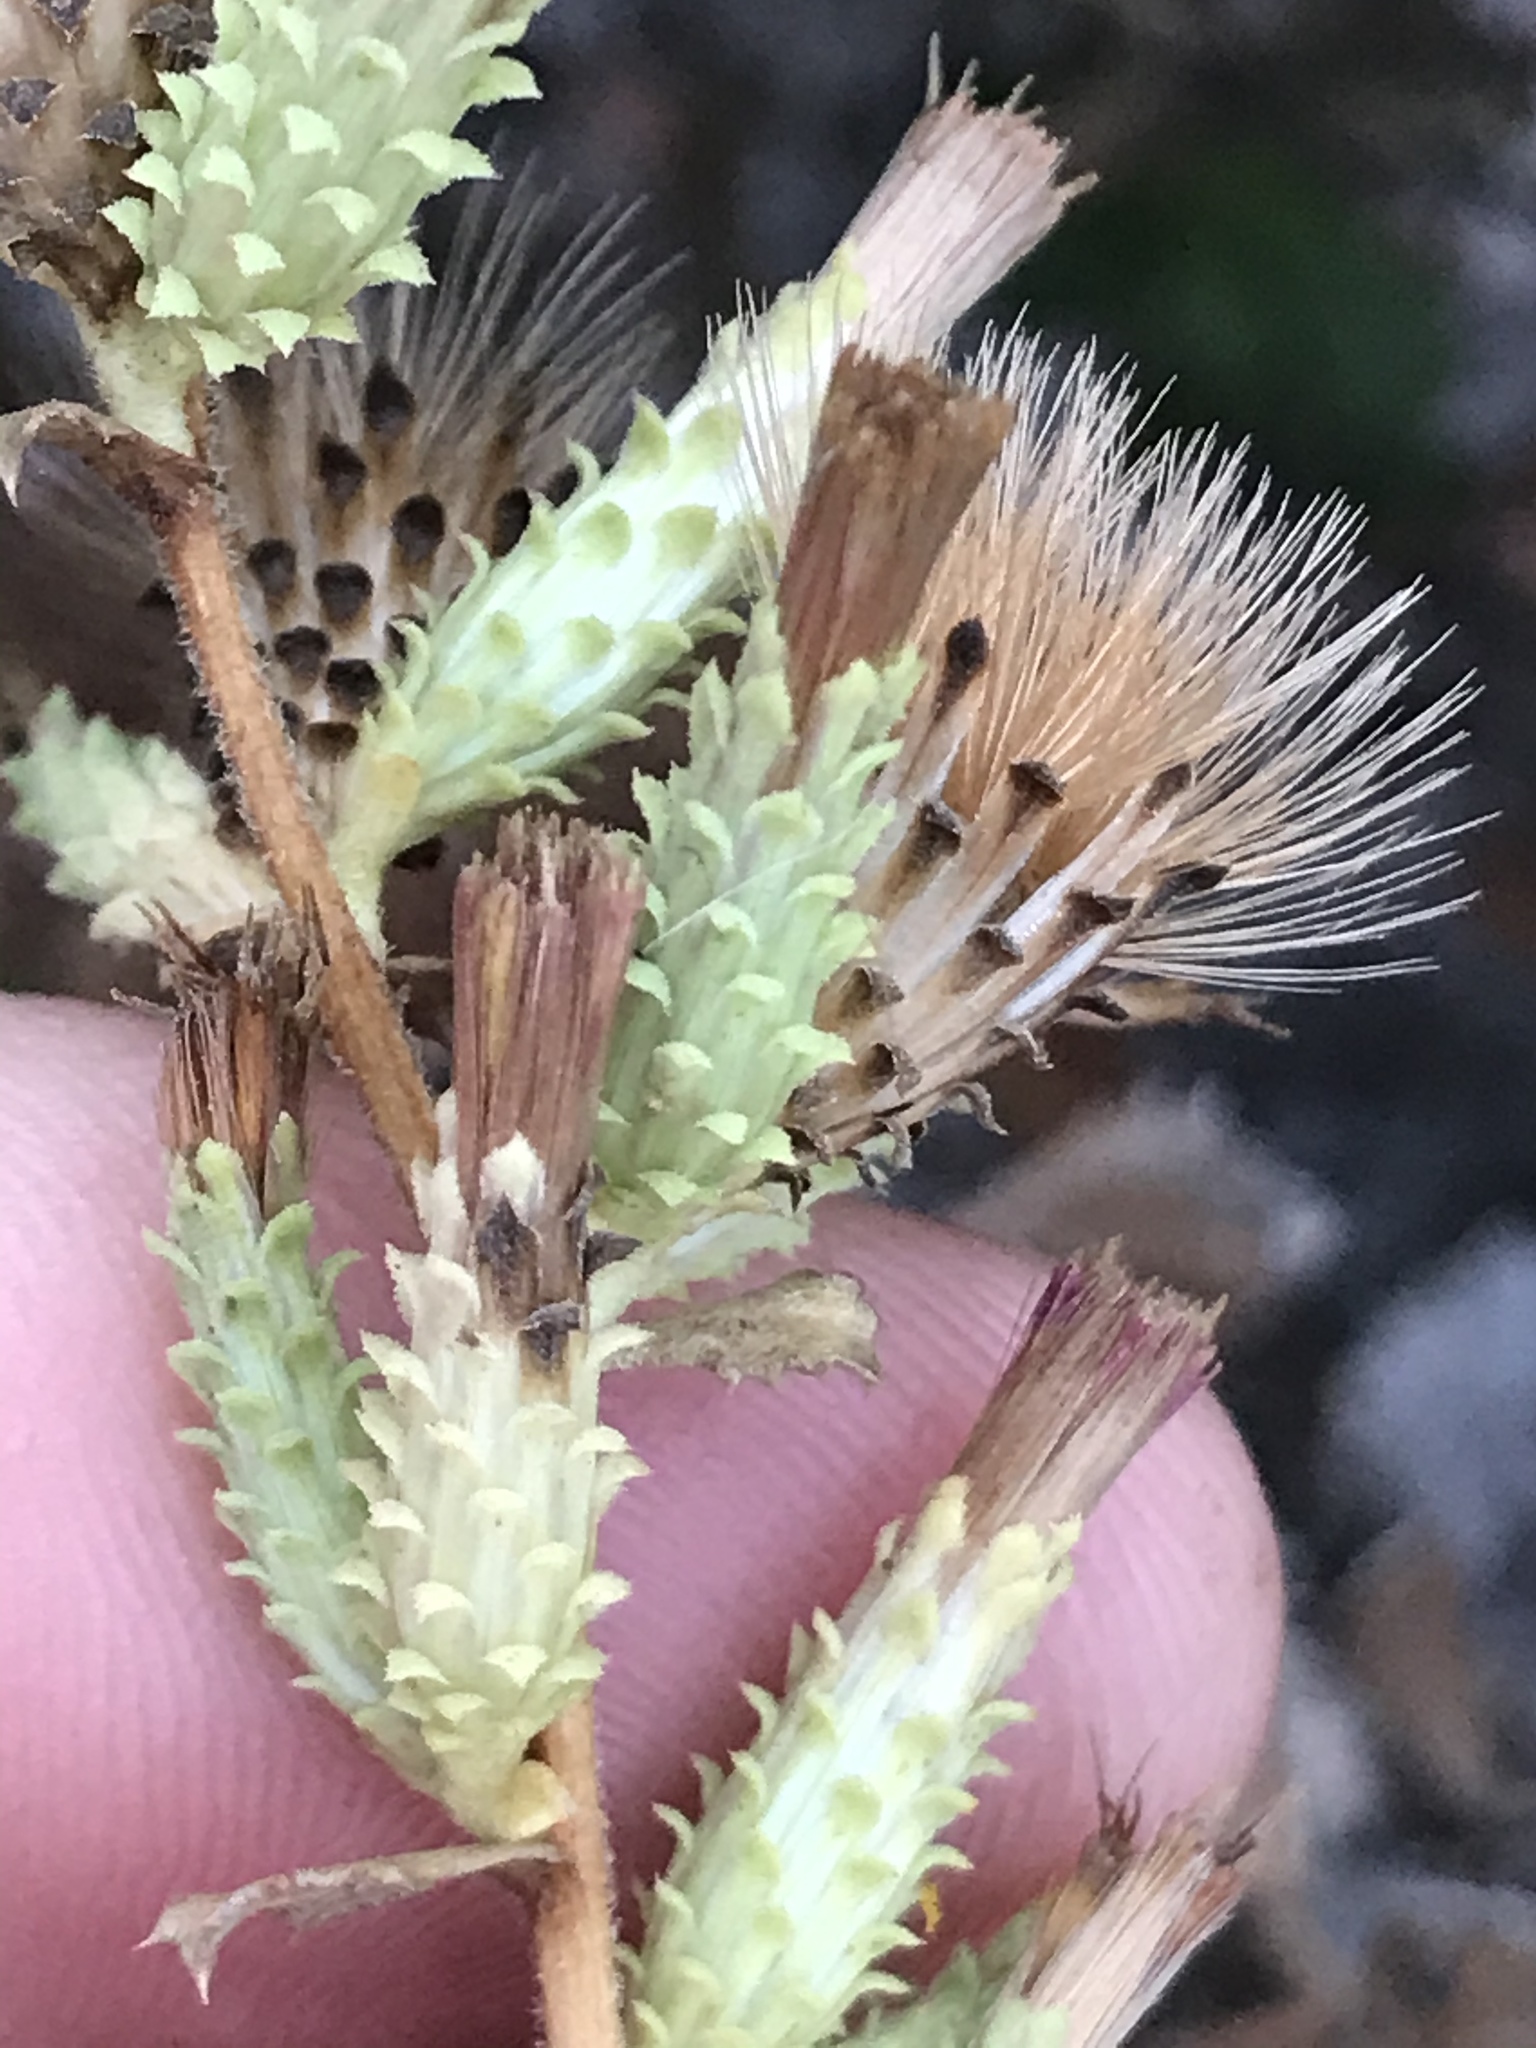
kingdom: Plantae
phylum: Tracheophyta
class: Magnoliopsida
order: Asterales
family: Asteraceae
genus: Hazardia
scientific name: Hazardia squarrosa
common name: Saw-tooth goldenbush
